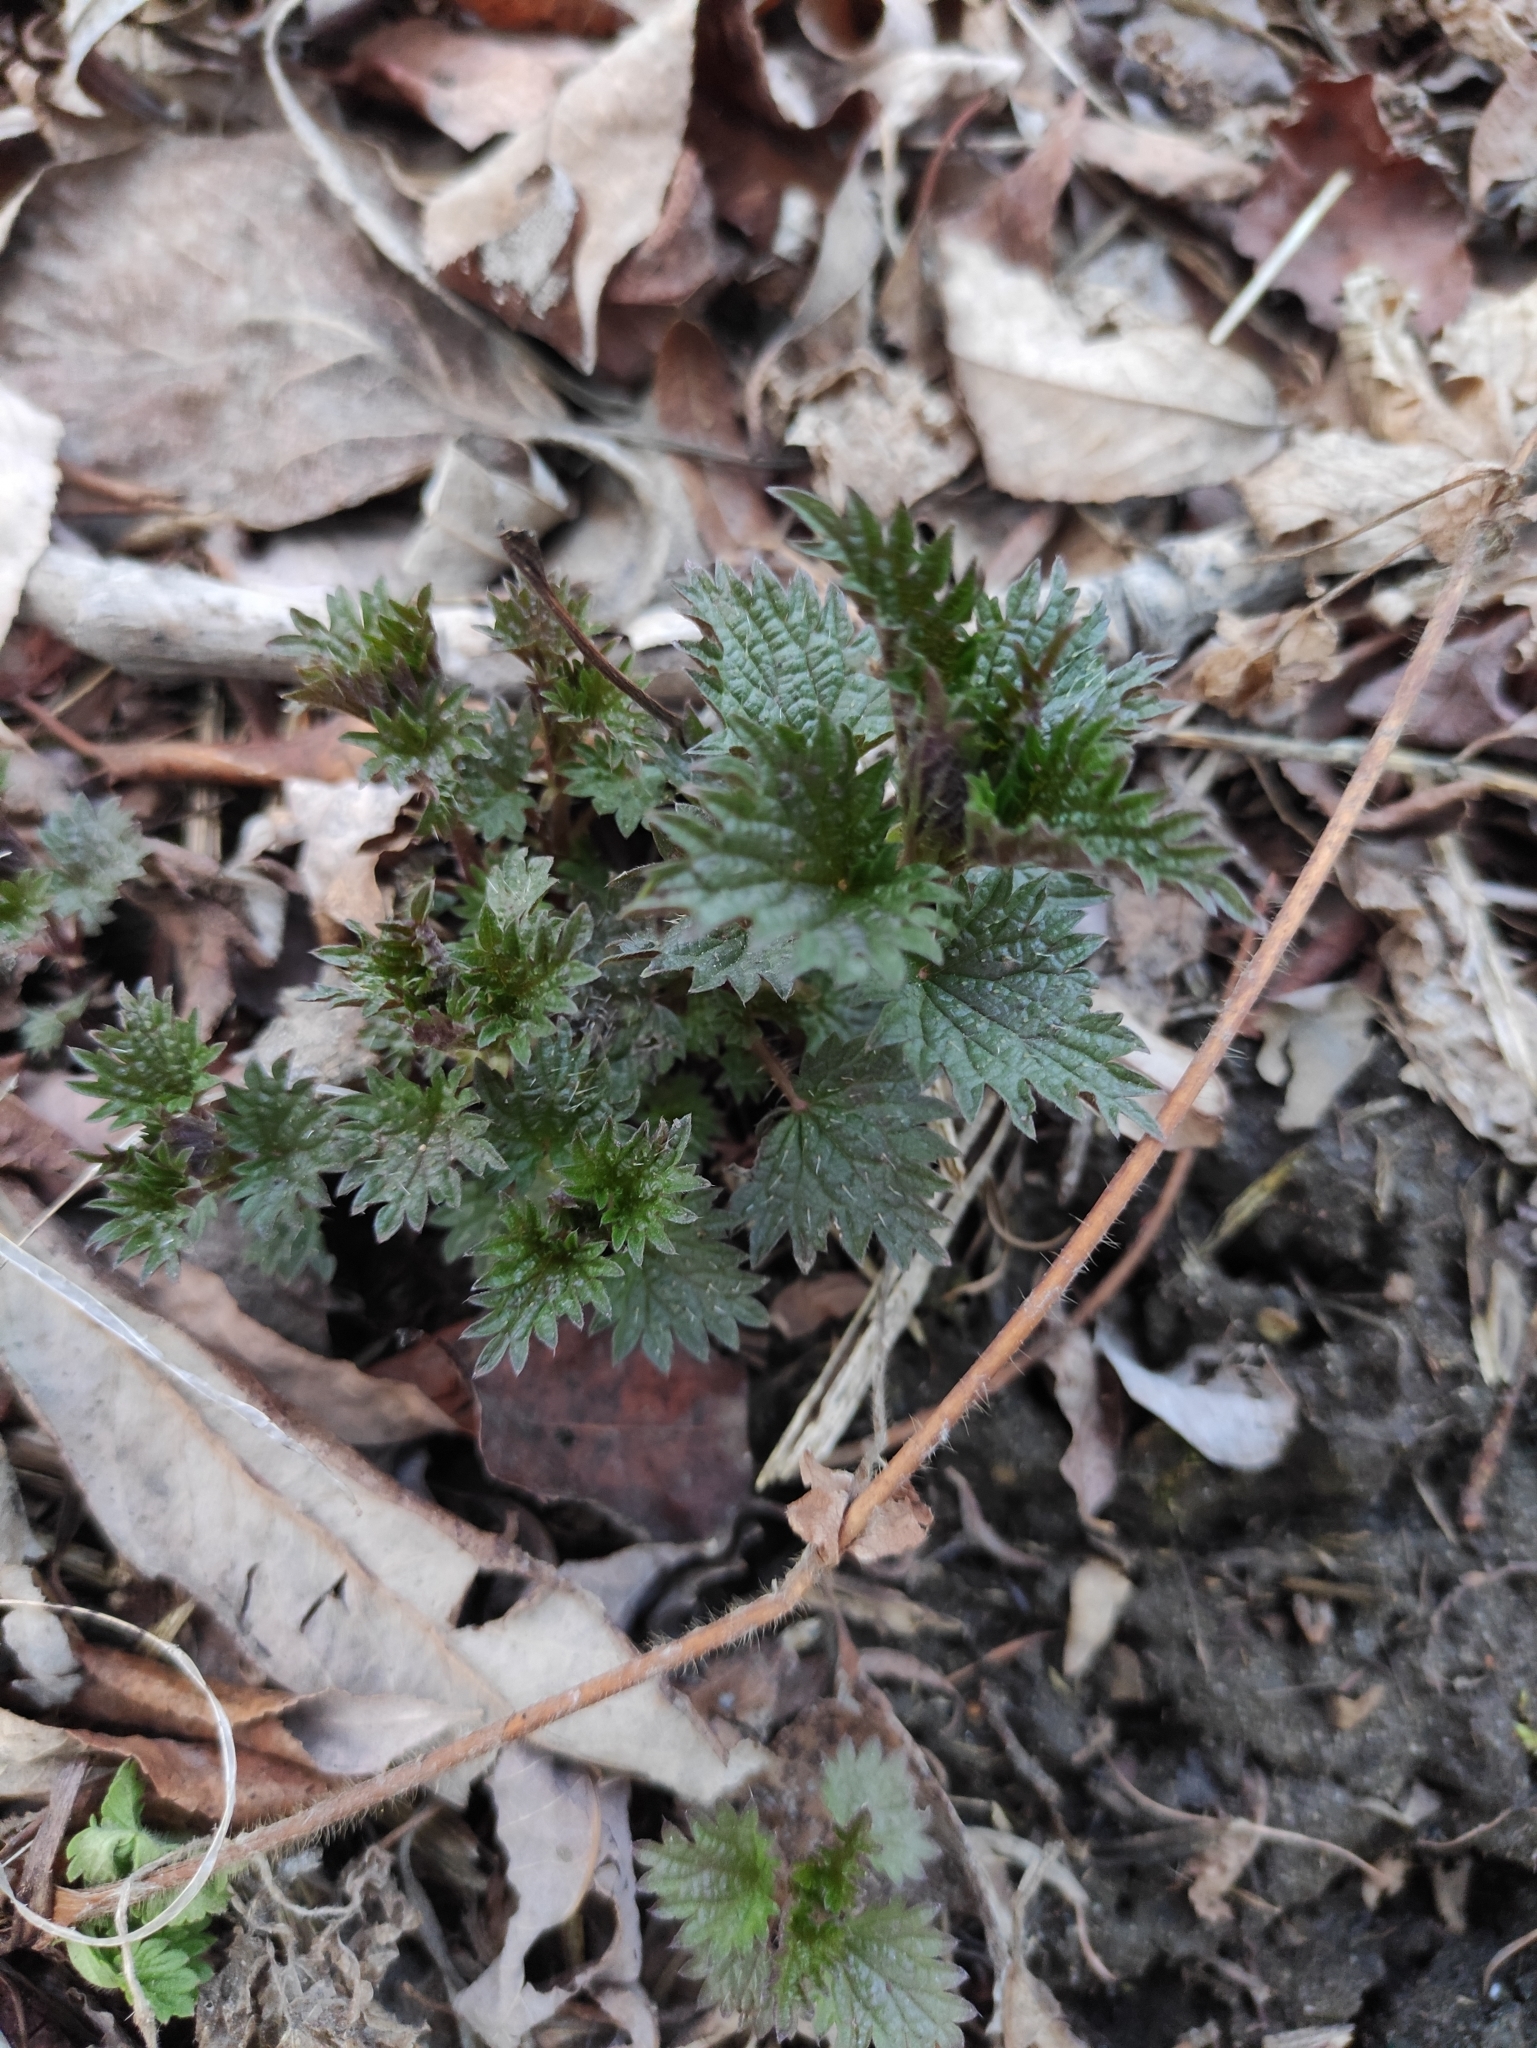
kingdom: Plantae
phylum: Tracheophyta
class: Magnoliopsida
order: Rosales
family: Urticaceae
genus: Urtica
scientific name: Urtica dioica
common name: Common nettle
